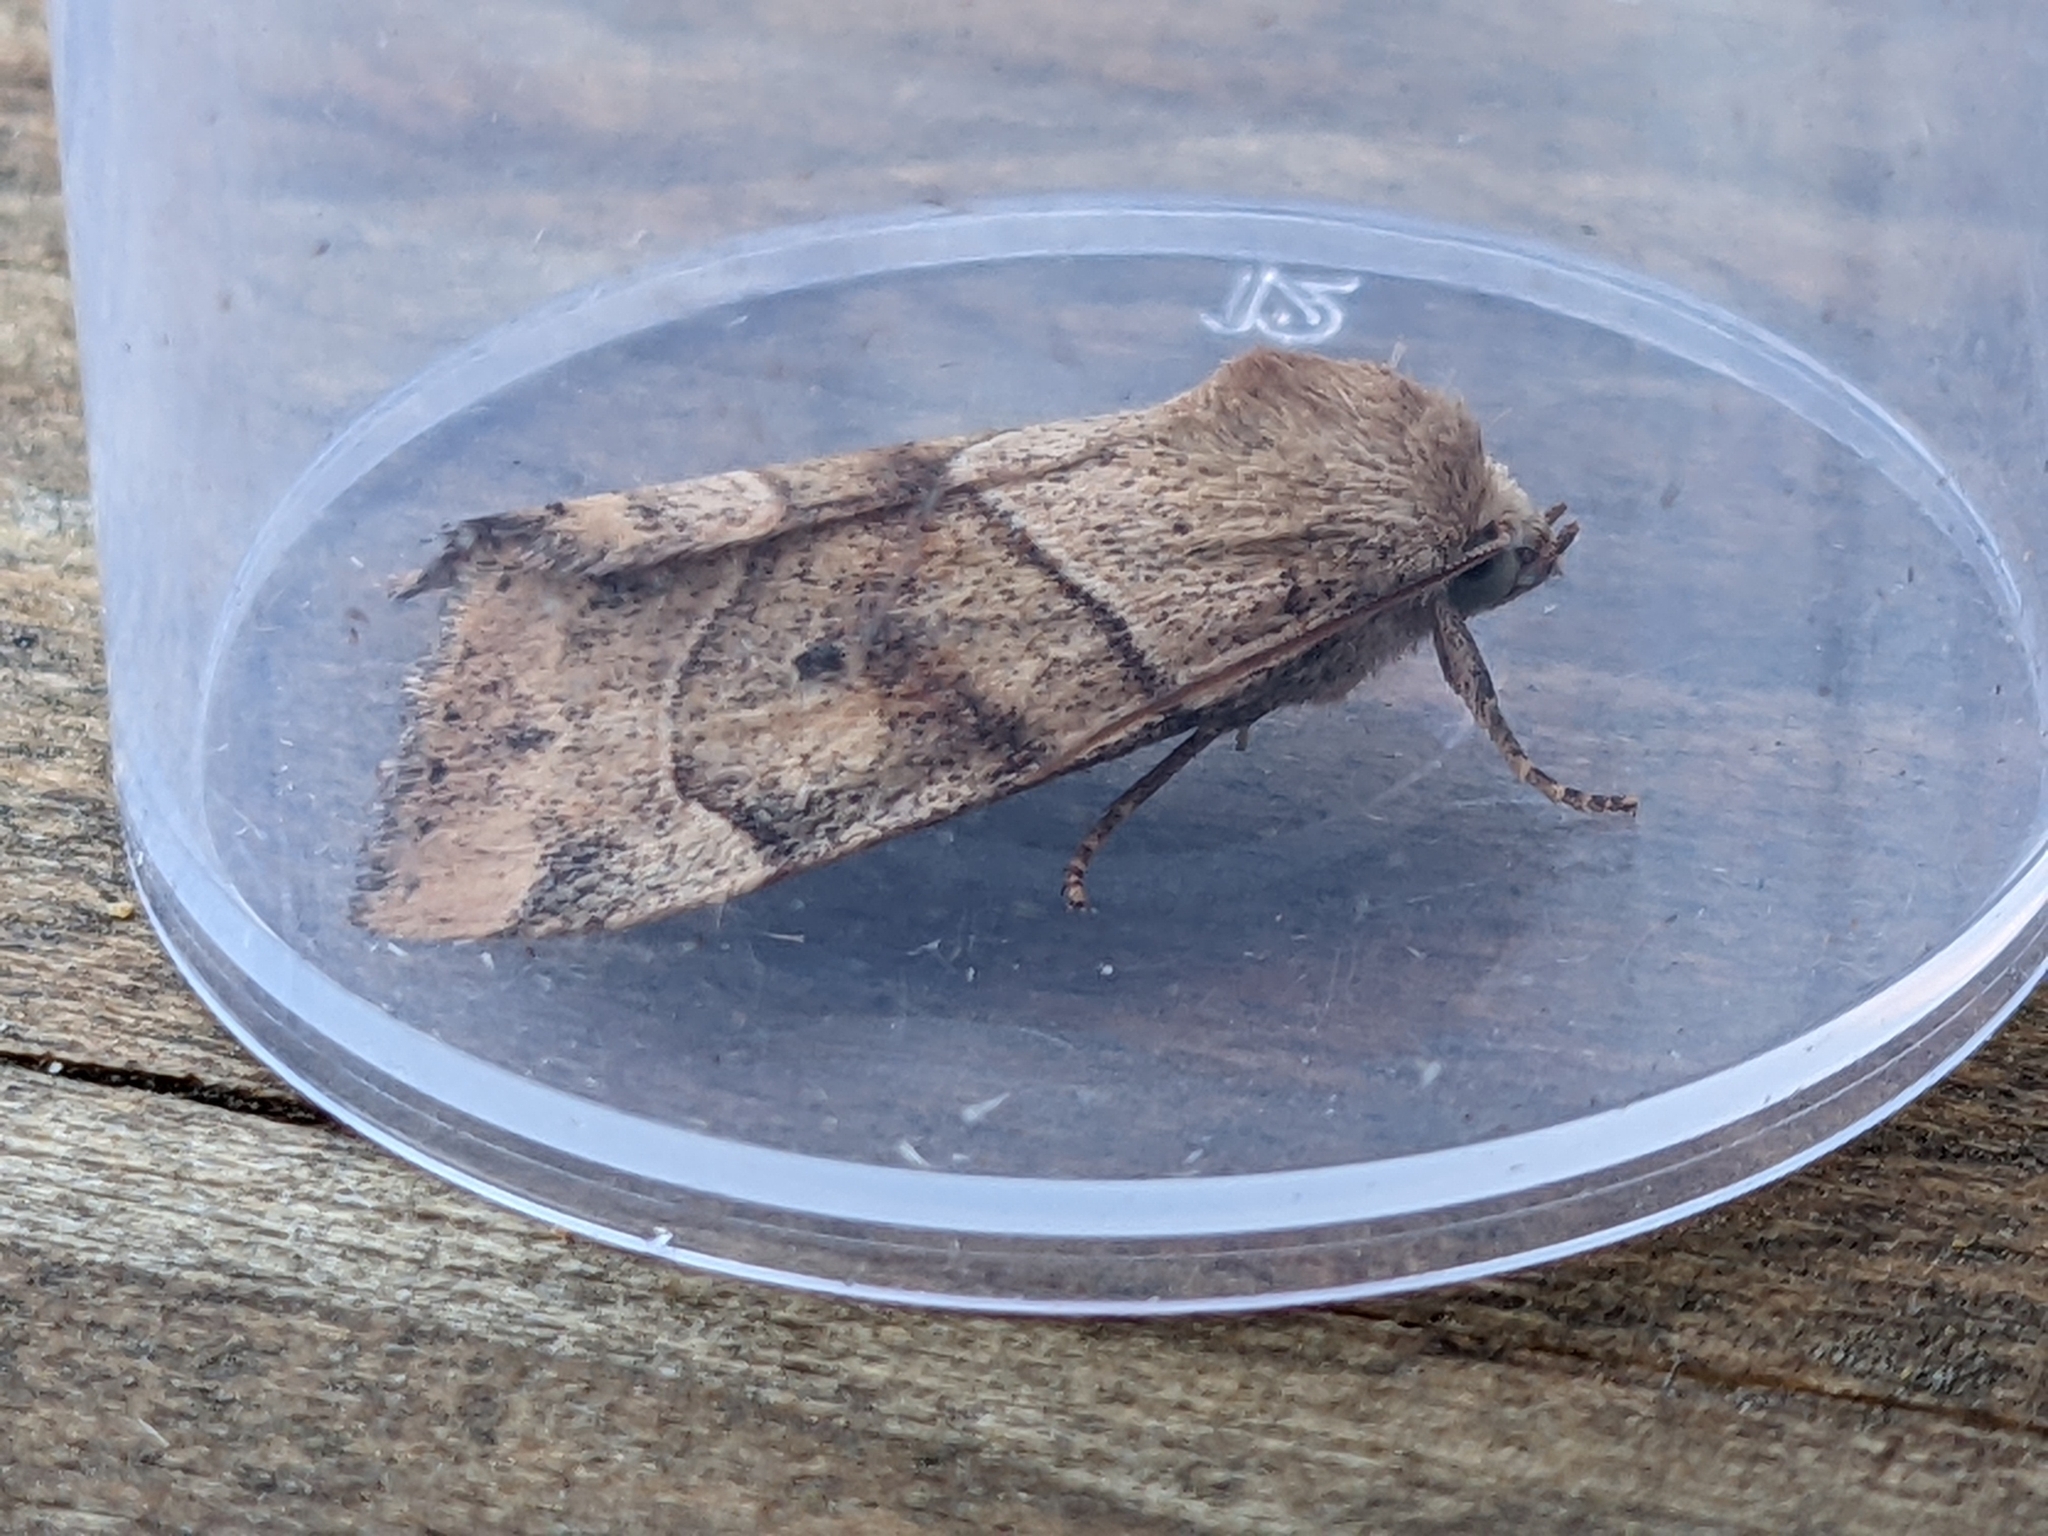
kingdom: Animalia
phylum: Arthropoda
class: Insecta
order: Lepidoptera
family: Noctuidae
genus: Cosmia
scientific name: Cosmia trapezina
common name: Dun-bar
